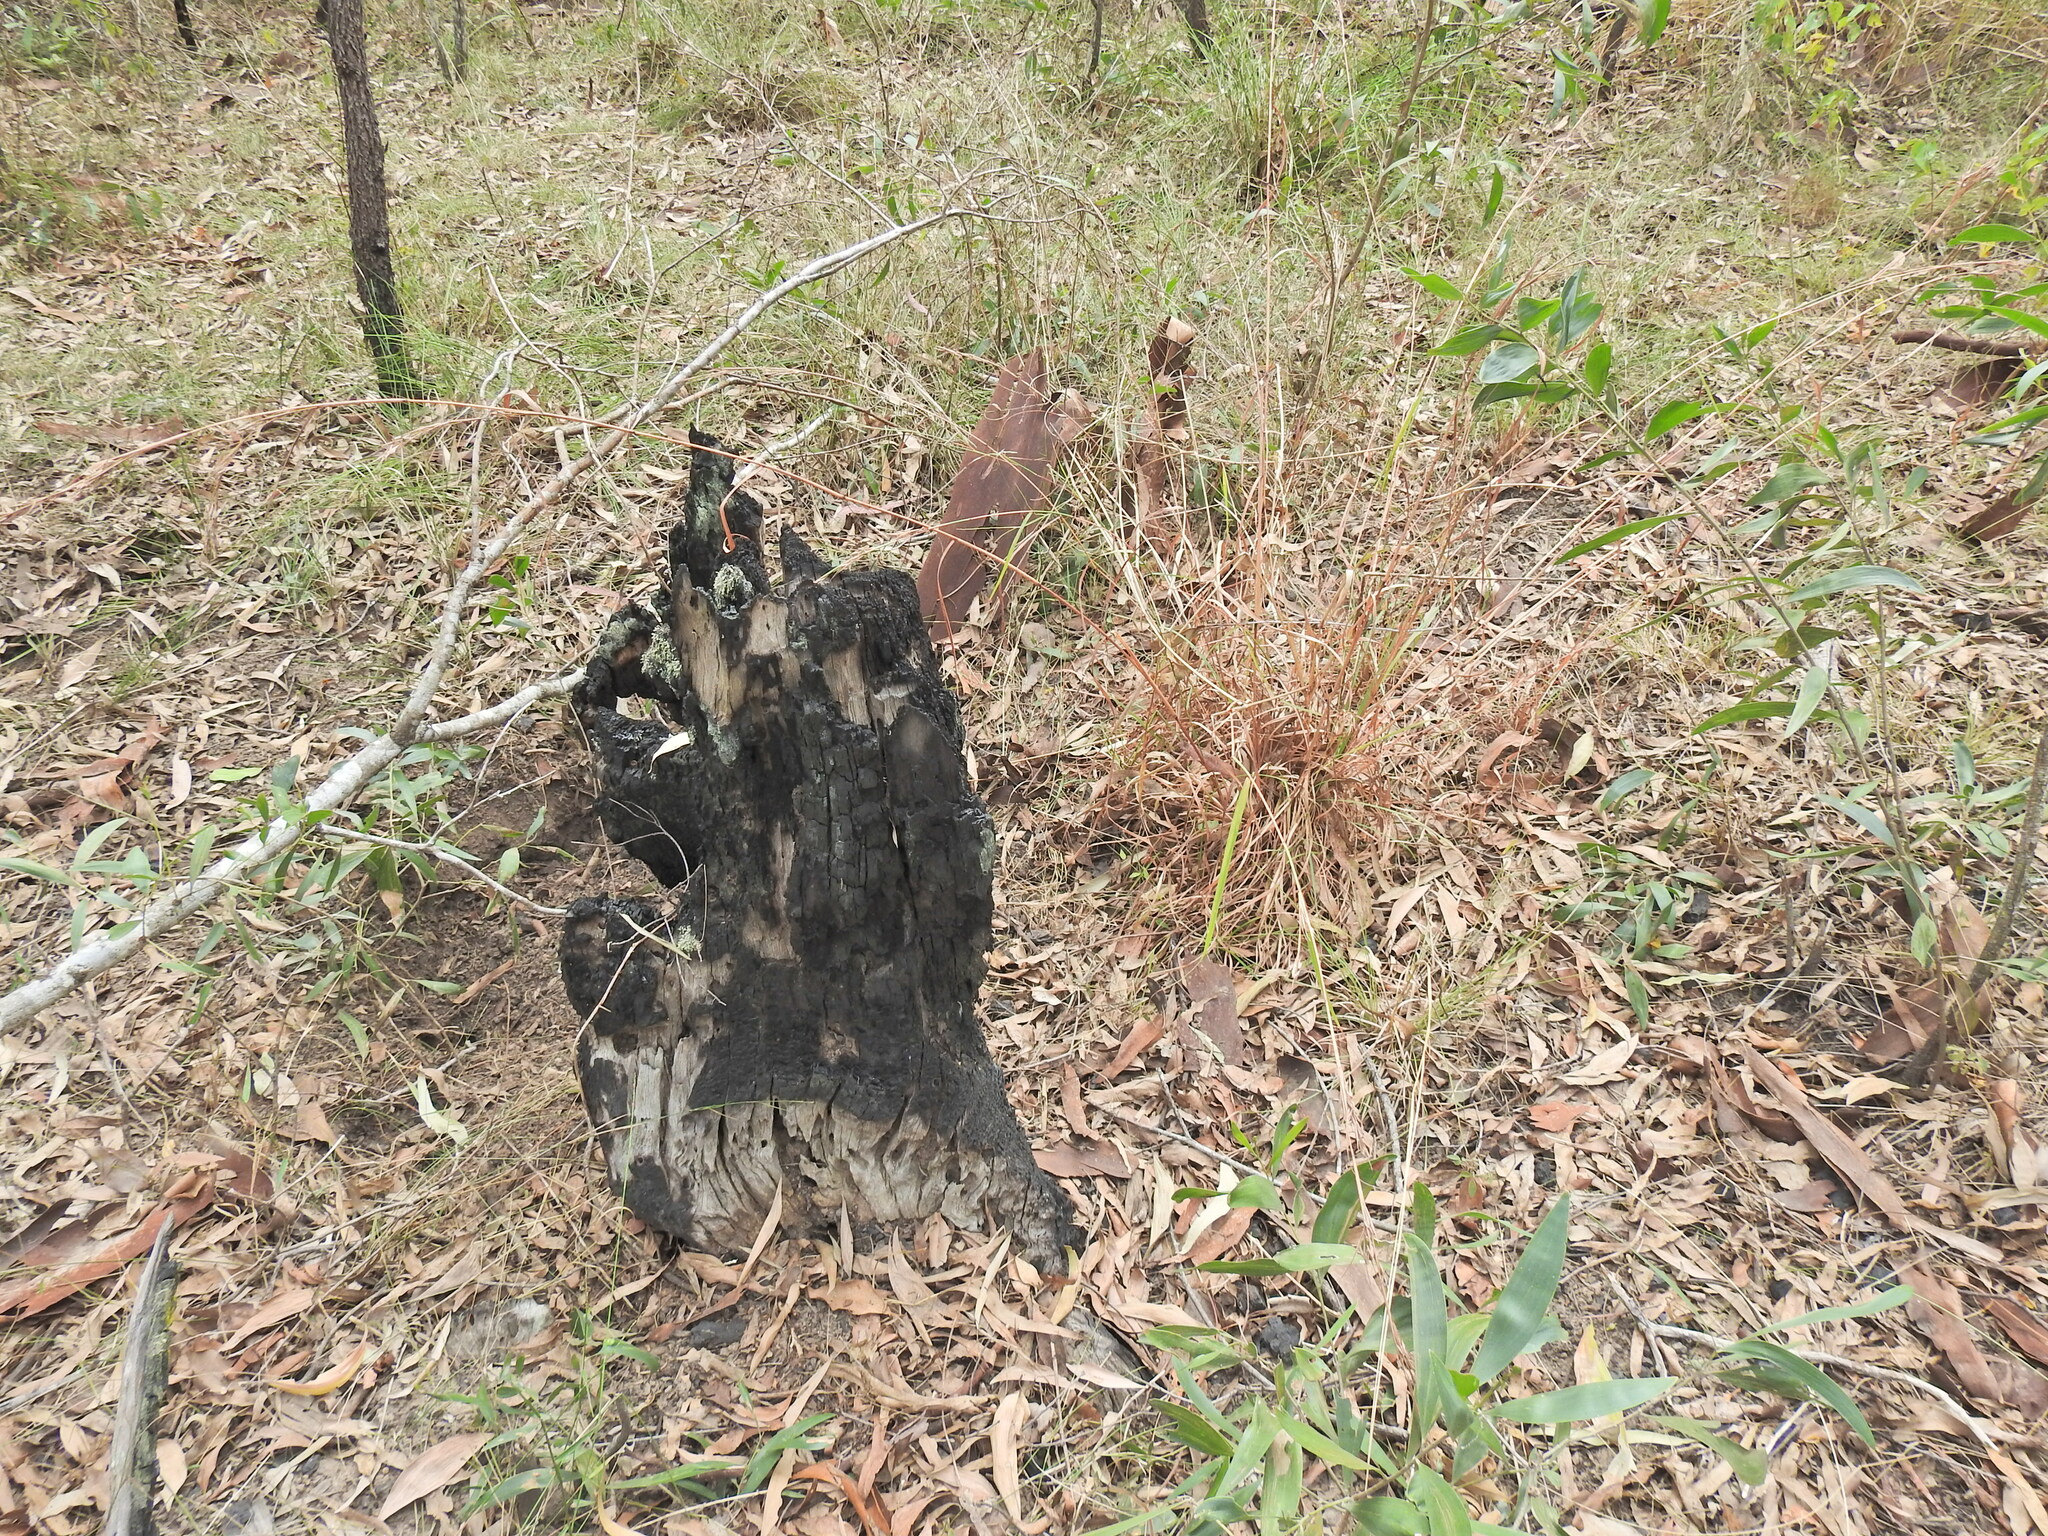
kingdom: Plantae
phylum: Tracheophyta
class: Liliopsida
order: Poales
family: Poaceae
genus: Cymbopogon
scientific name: Cymbopogon refractus
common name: Barbwire grass
